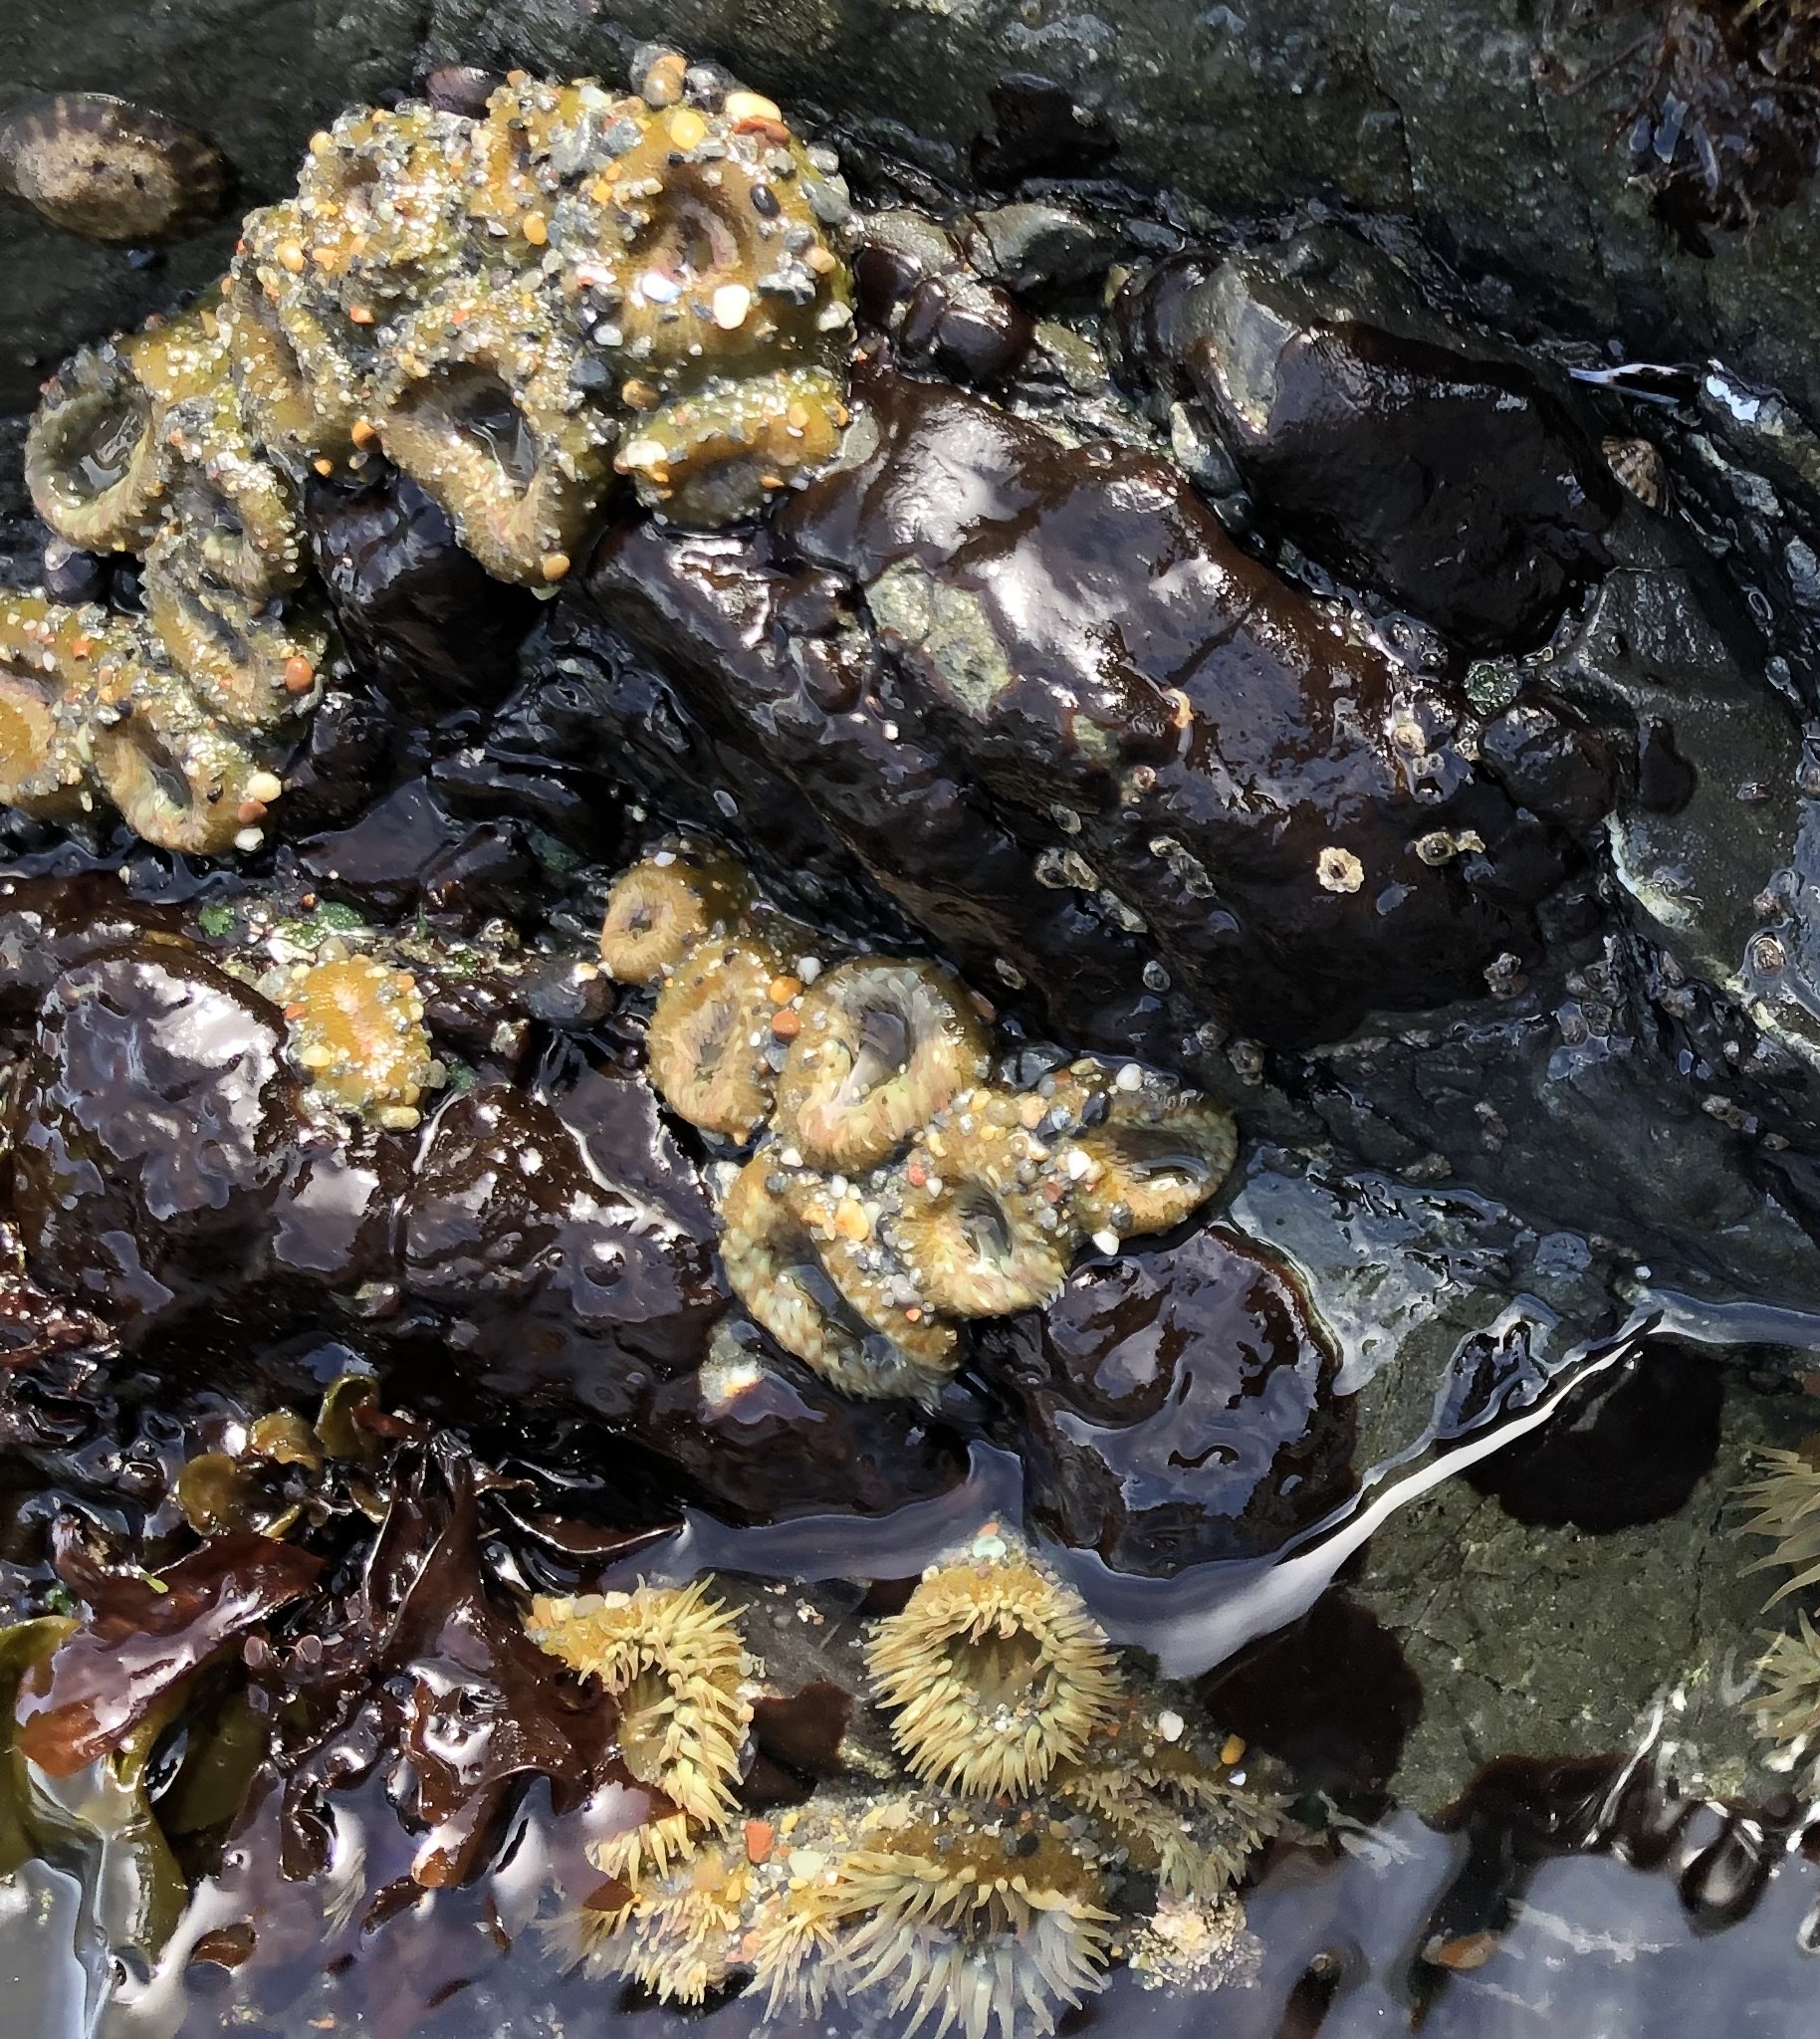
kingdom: Animalia
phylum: Cnidaria
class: Anthozoa
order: Actiniaria
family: Actiniidae
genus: Anthopleura
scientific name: Anthopleura elegantissima
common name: Clonal anemone
